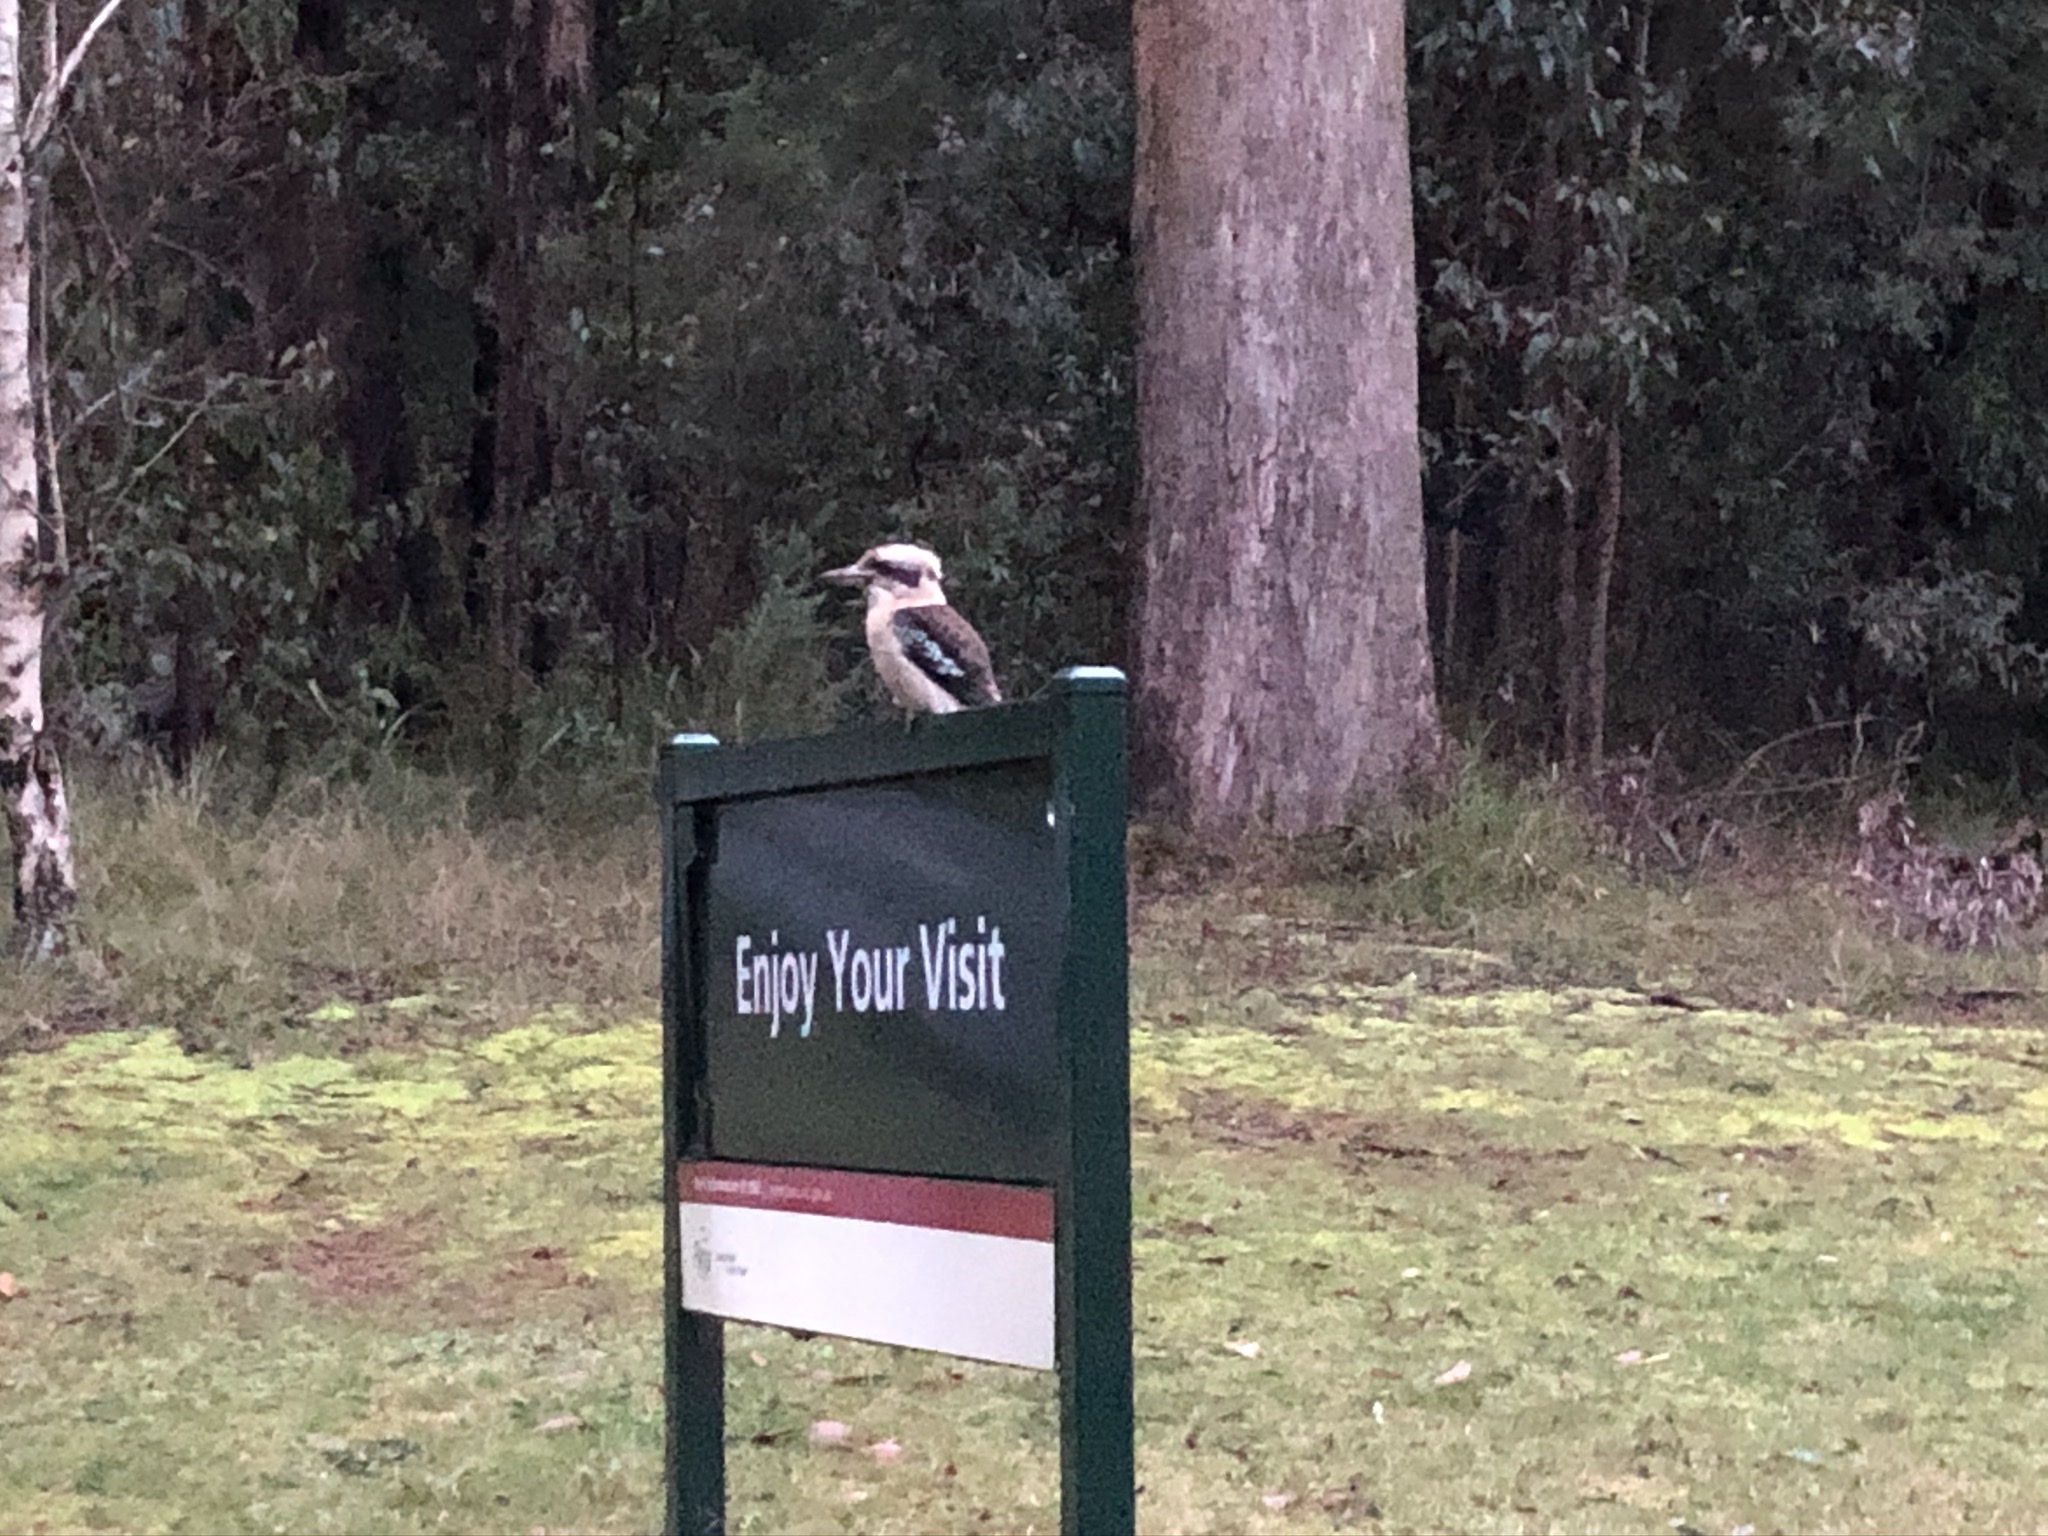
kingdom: Animalia
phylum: Chordata
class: Aves
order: Coraciiformes
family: Alcedinidae
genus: Dacelo
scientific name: Dacelo novaeguineae
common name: Laughing kookaburra
